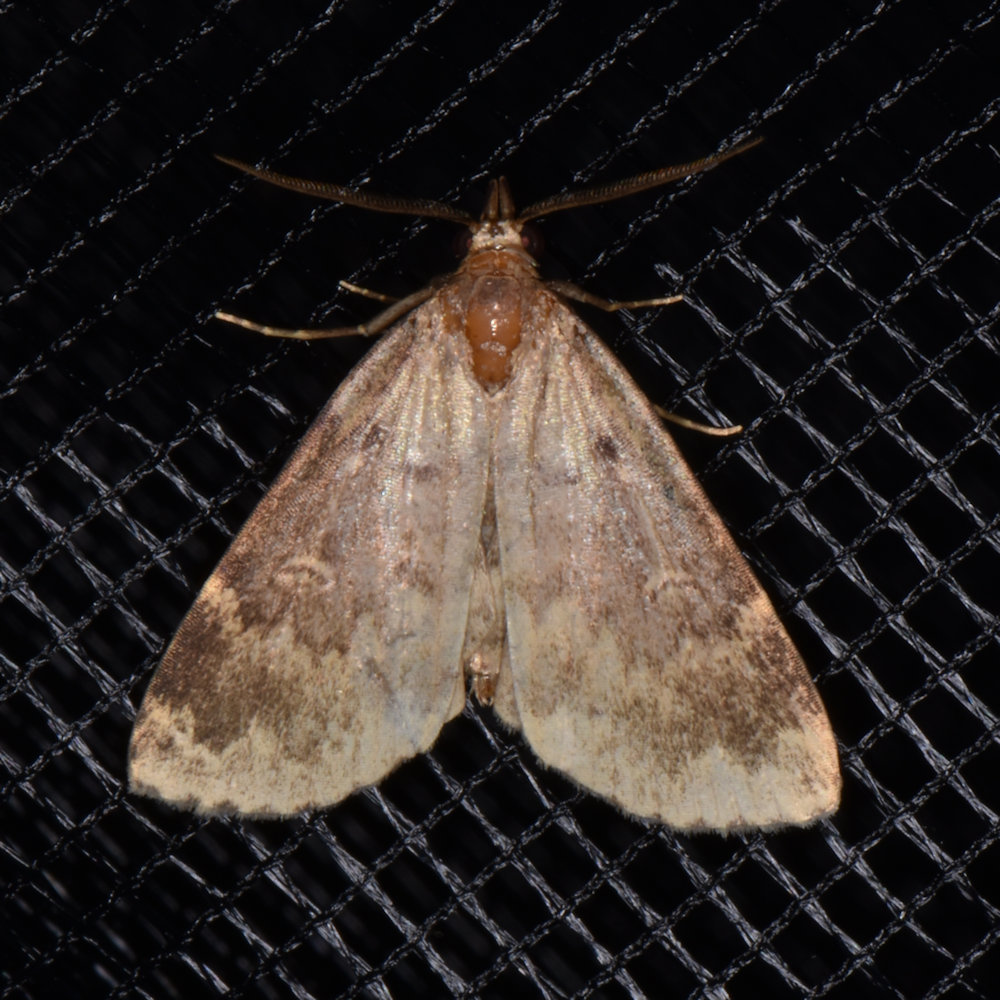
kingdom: Animalia
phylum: Arthropoda
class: Insecta
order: Lepidoptera
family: Erebidae
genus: Idia
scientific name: Idia lubricalis
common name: Twin-striped tabby
